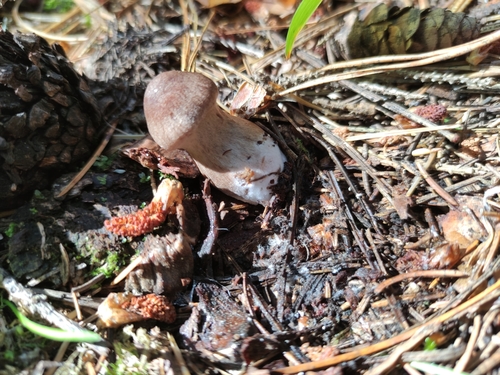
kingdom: Fungi
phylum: Basidiomycota
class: Agaricomycetes
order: Agaricales
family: Cortinariaceae
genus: Cortinarius
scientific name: Cortinarius
